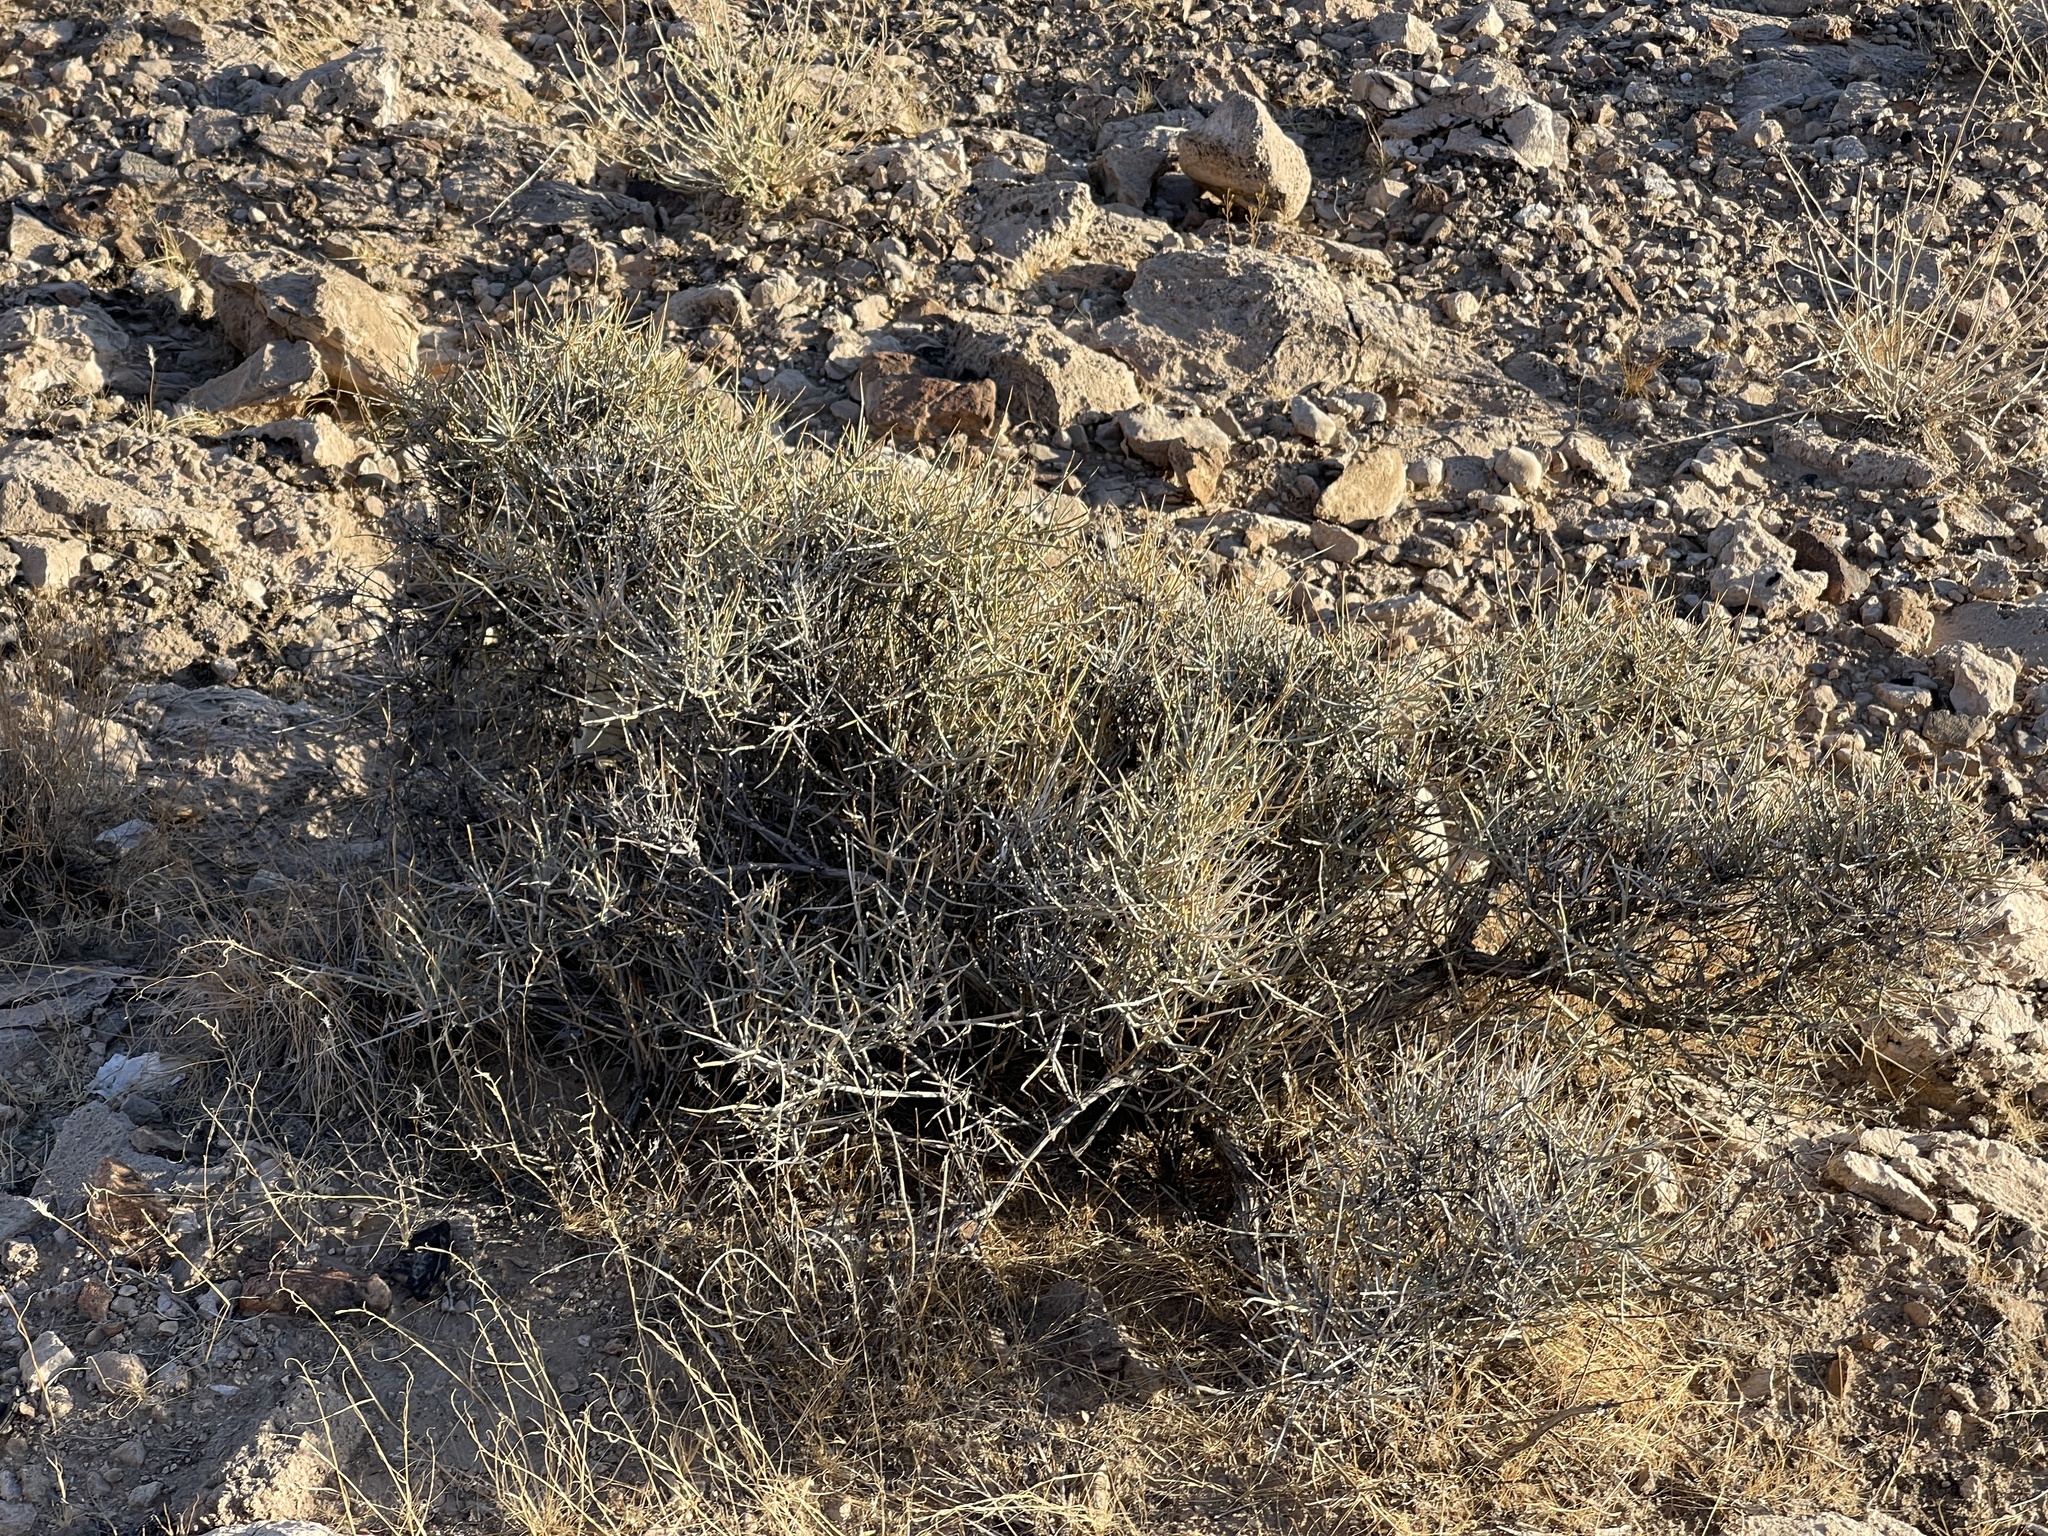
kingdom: Plantae
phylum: Tracheophyta
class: Gnetopsida
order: Ephedrales
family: Ephedraceae
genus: Ephedra
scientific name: Ephedra nevadensis
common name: Gray ephedra
